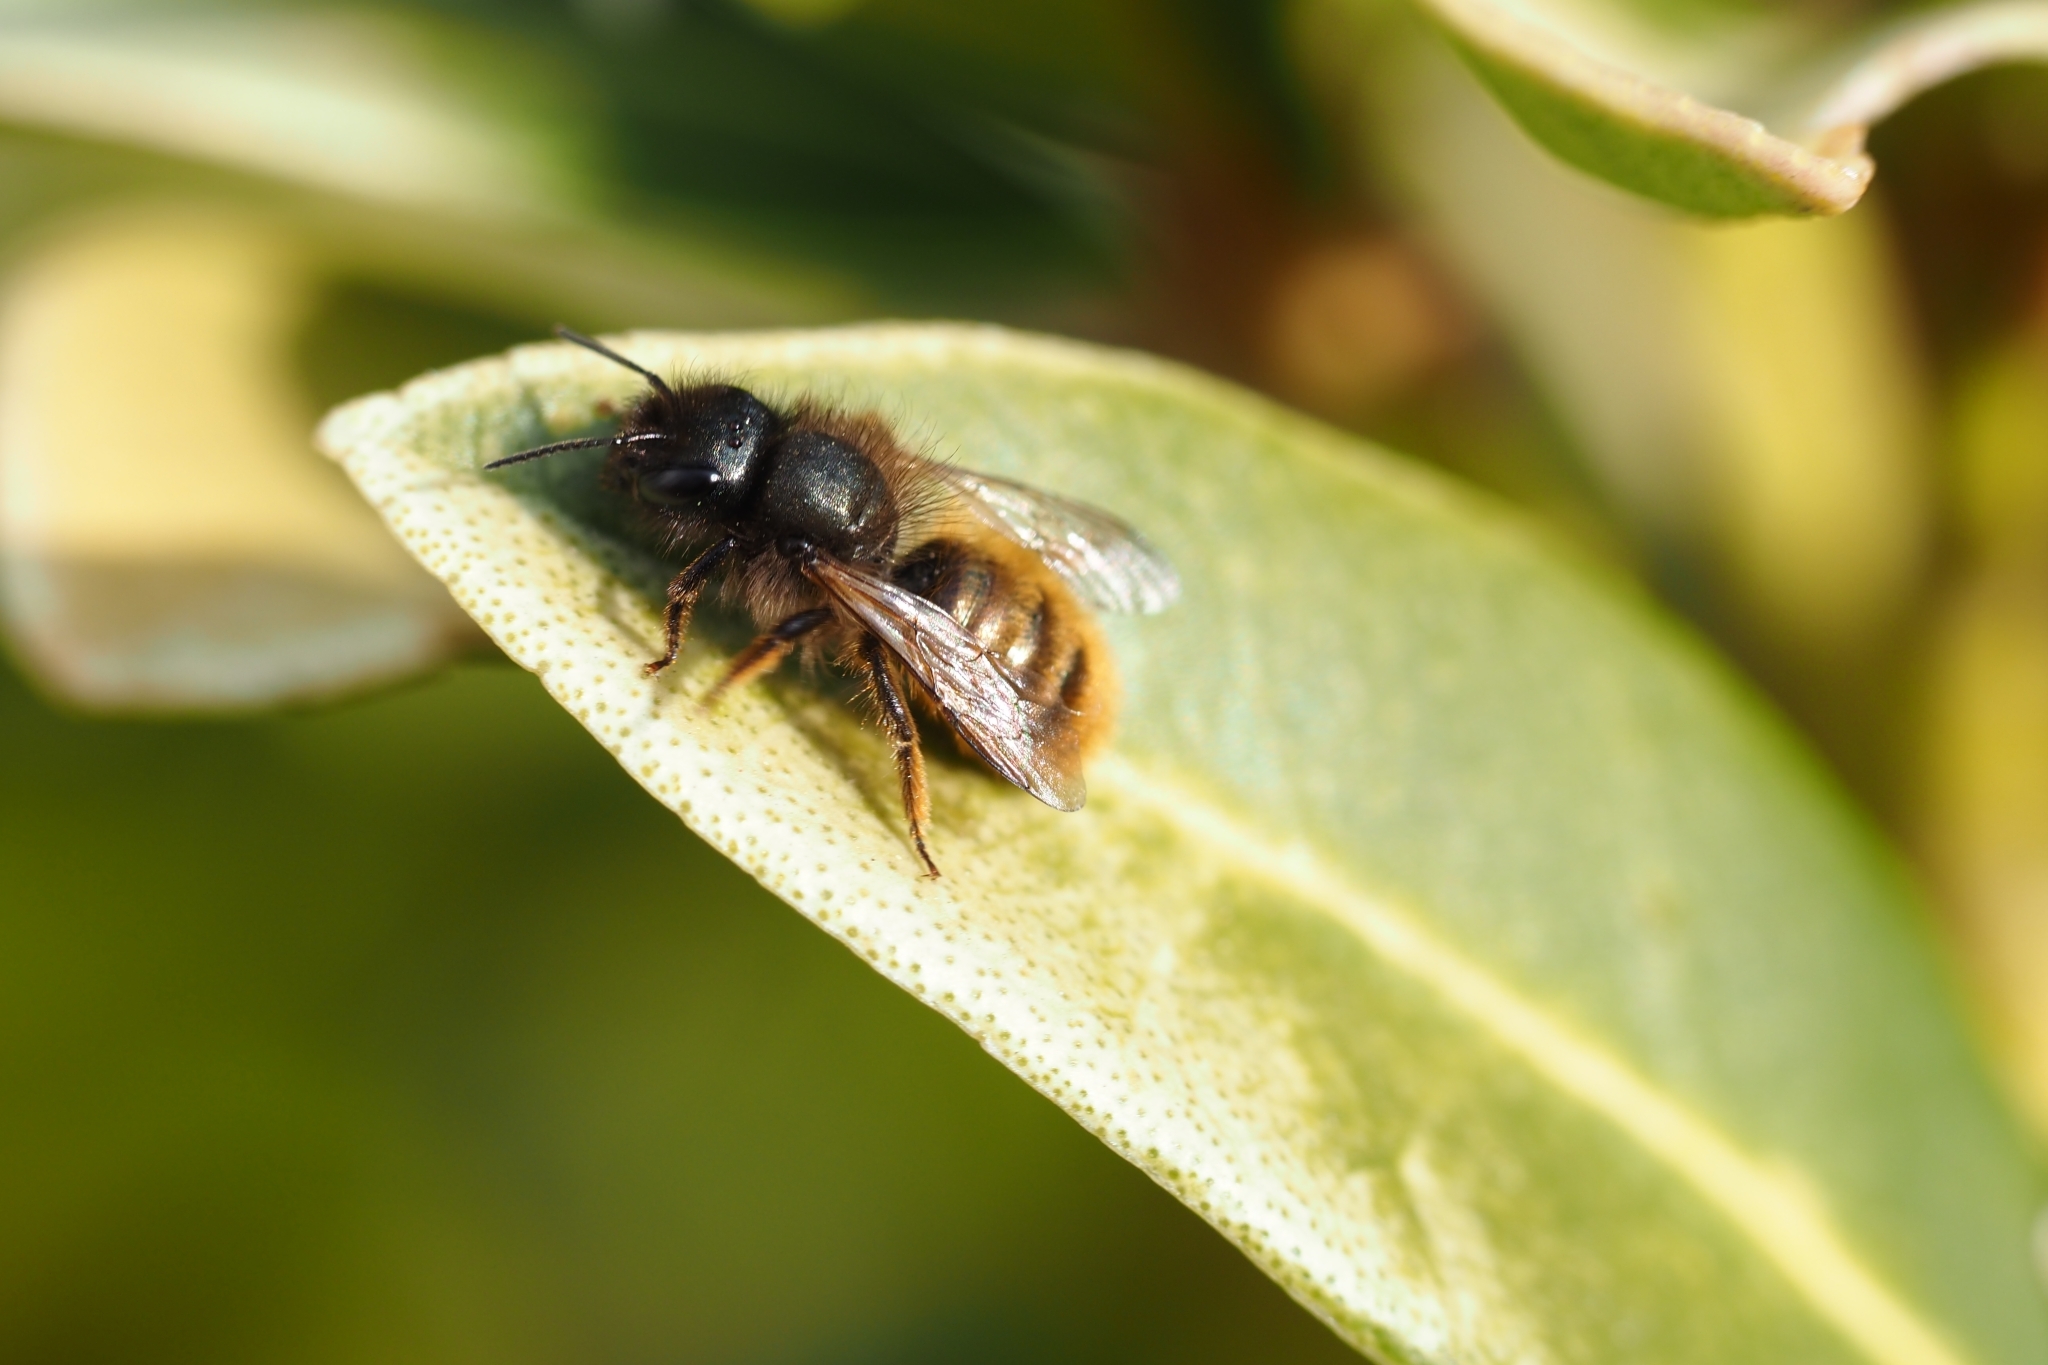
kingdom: Animalia
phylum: Arthropoda
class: Insecta
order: Hymenoptera
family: Megachilidae
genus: Osmia
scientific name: Osmia bicornis
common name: Red mason bee
